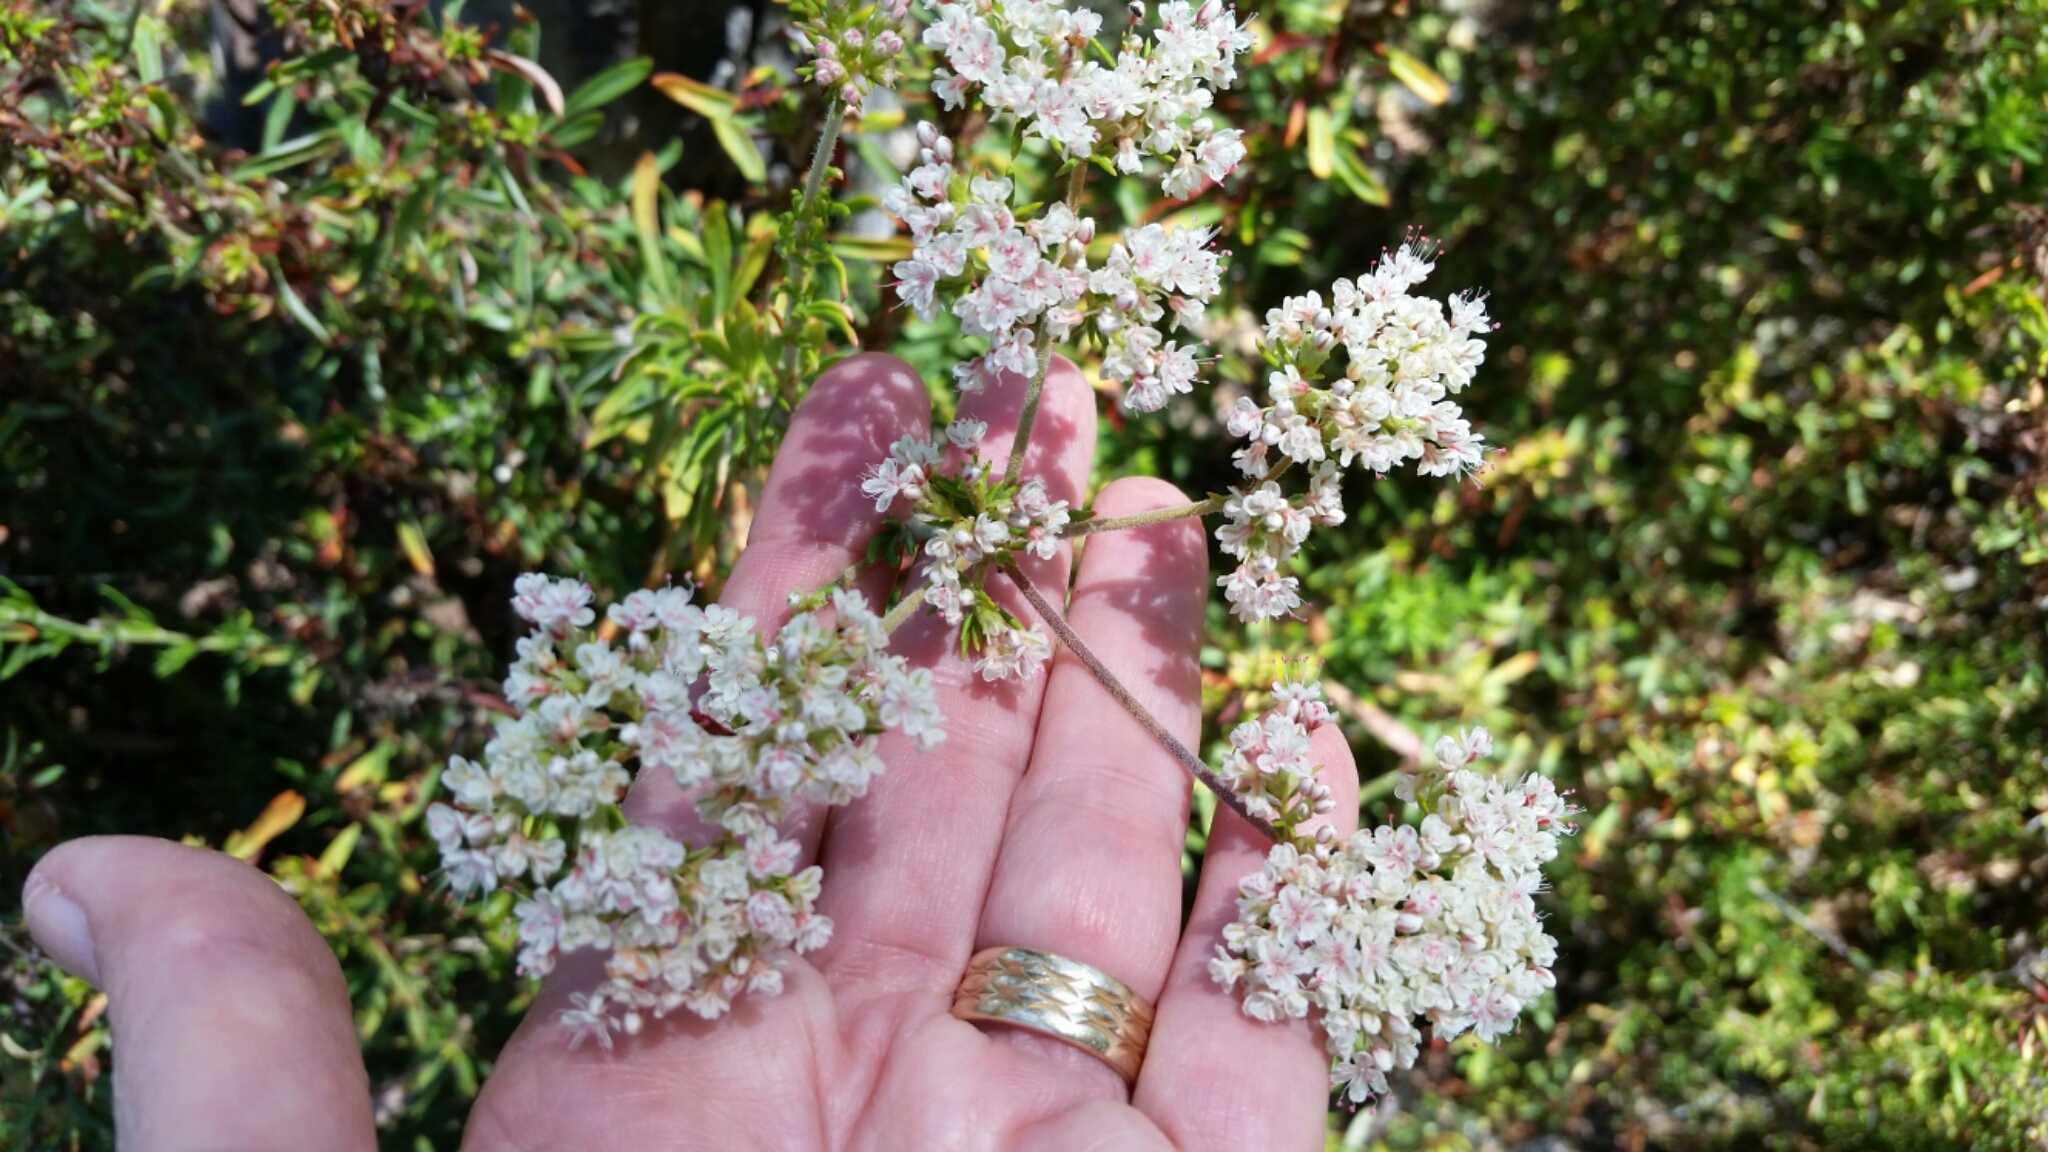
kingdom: Plantae
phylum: Tracheophyta
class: Magnoliopsida
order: Caryophyllales
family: Polygonaceae
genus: Eriogonum
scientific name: Eriogonum fasciculatum
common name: California wild buckwheat
